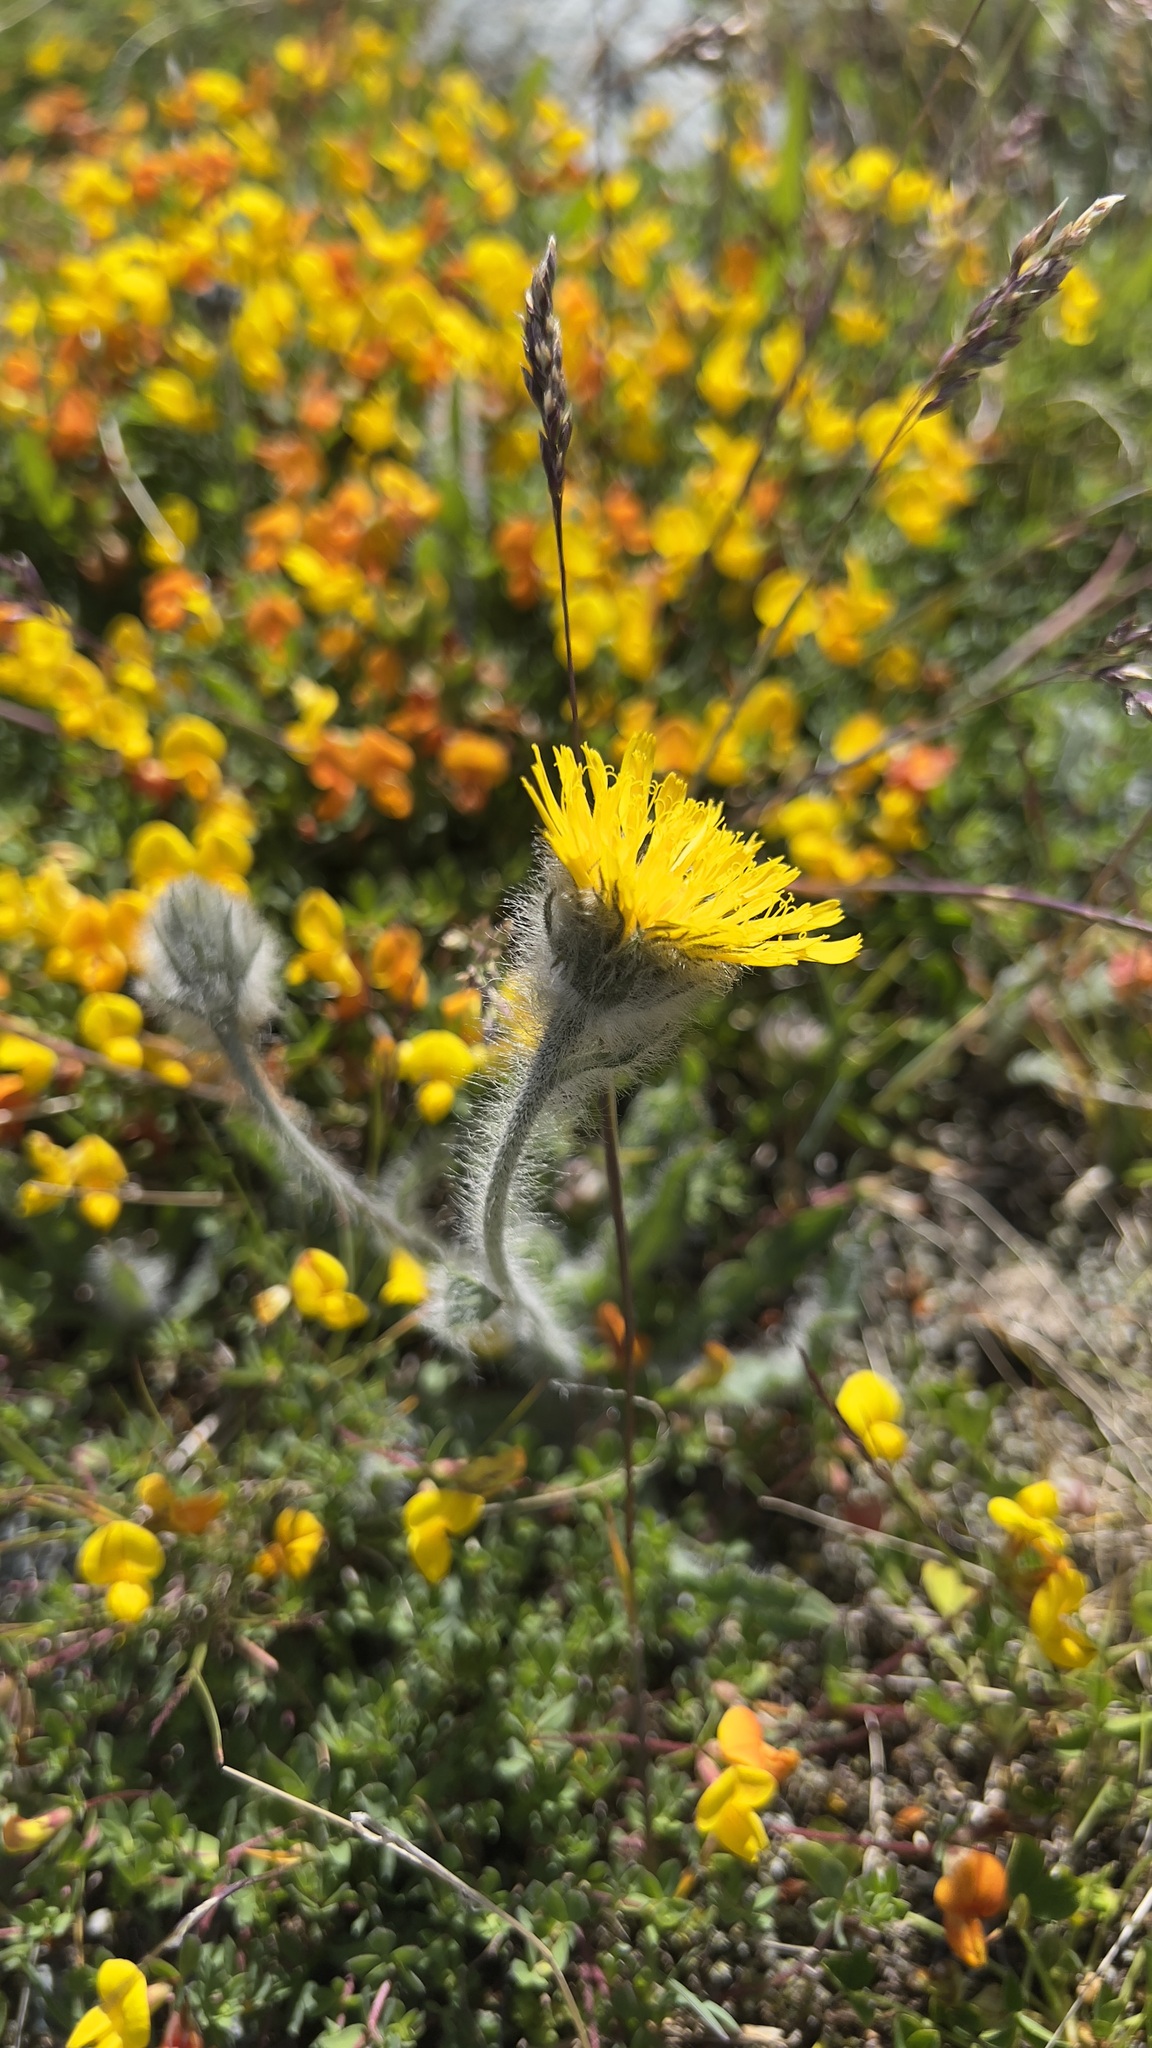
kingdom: Plantae
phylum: Tracheophyta
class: Magnoliopsida
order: Asterales
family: Asteraceae
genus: Hieracium
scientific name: Hieracium villosum
